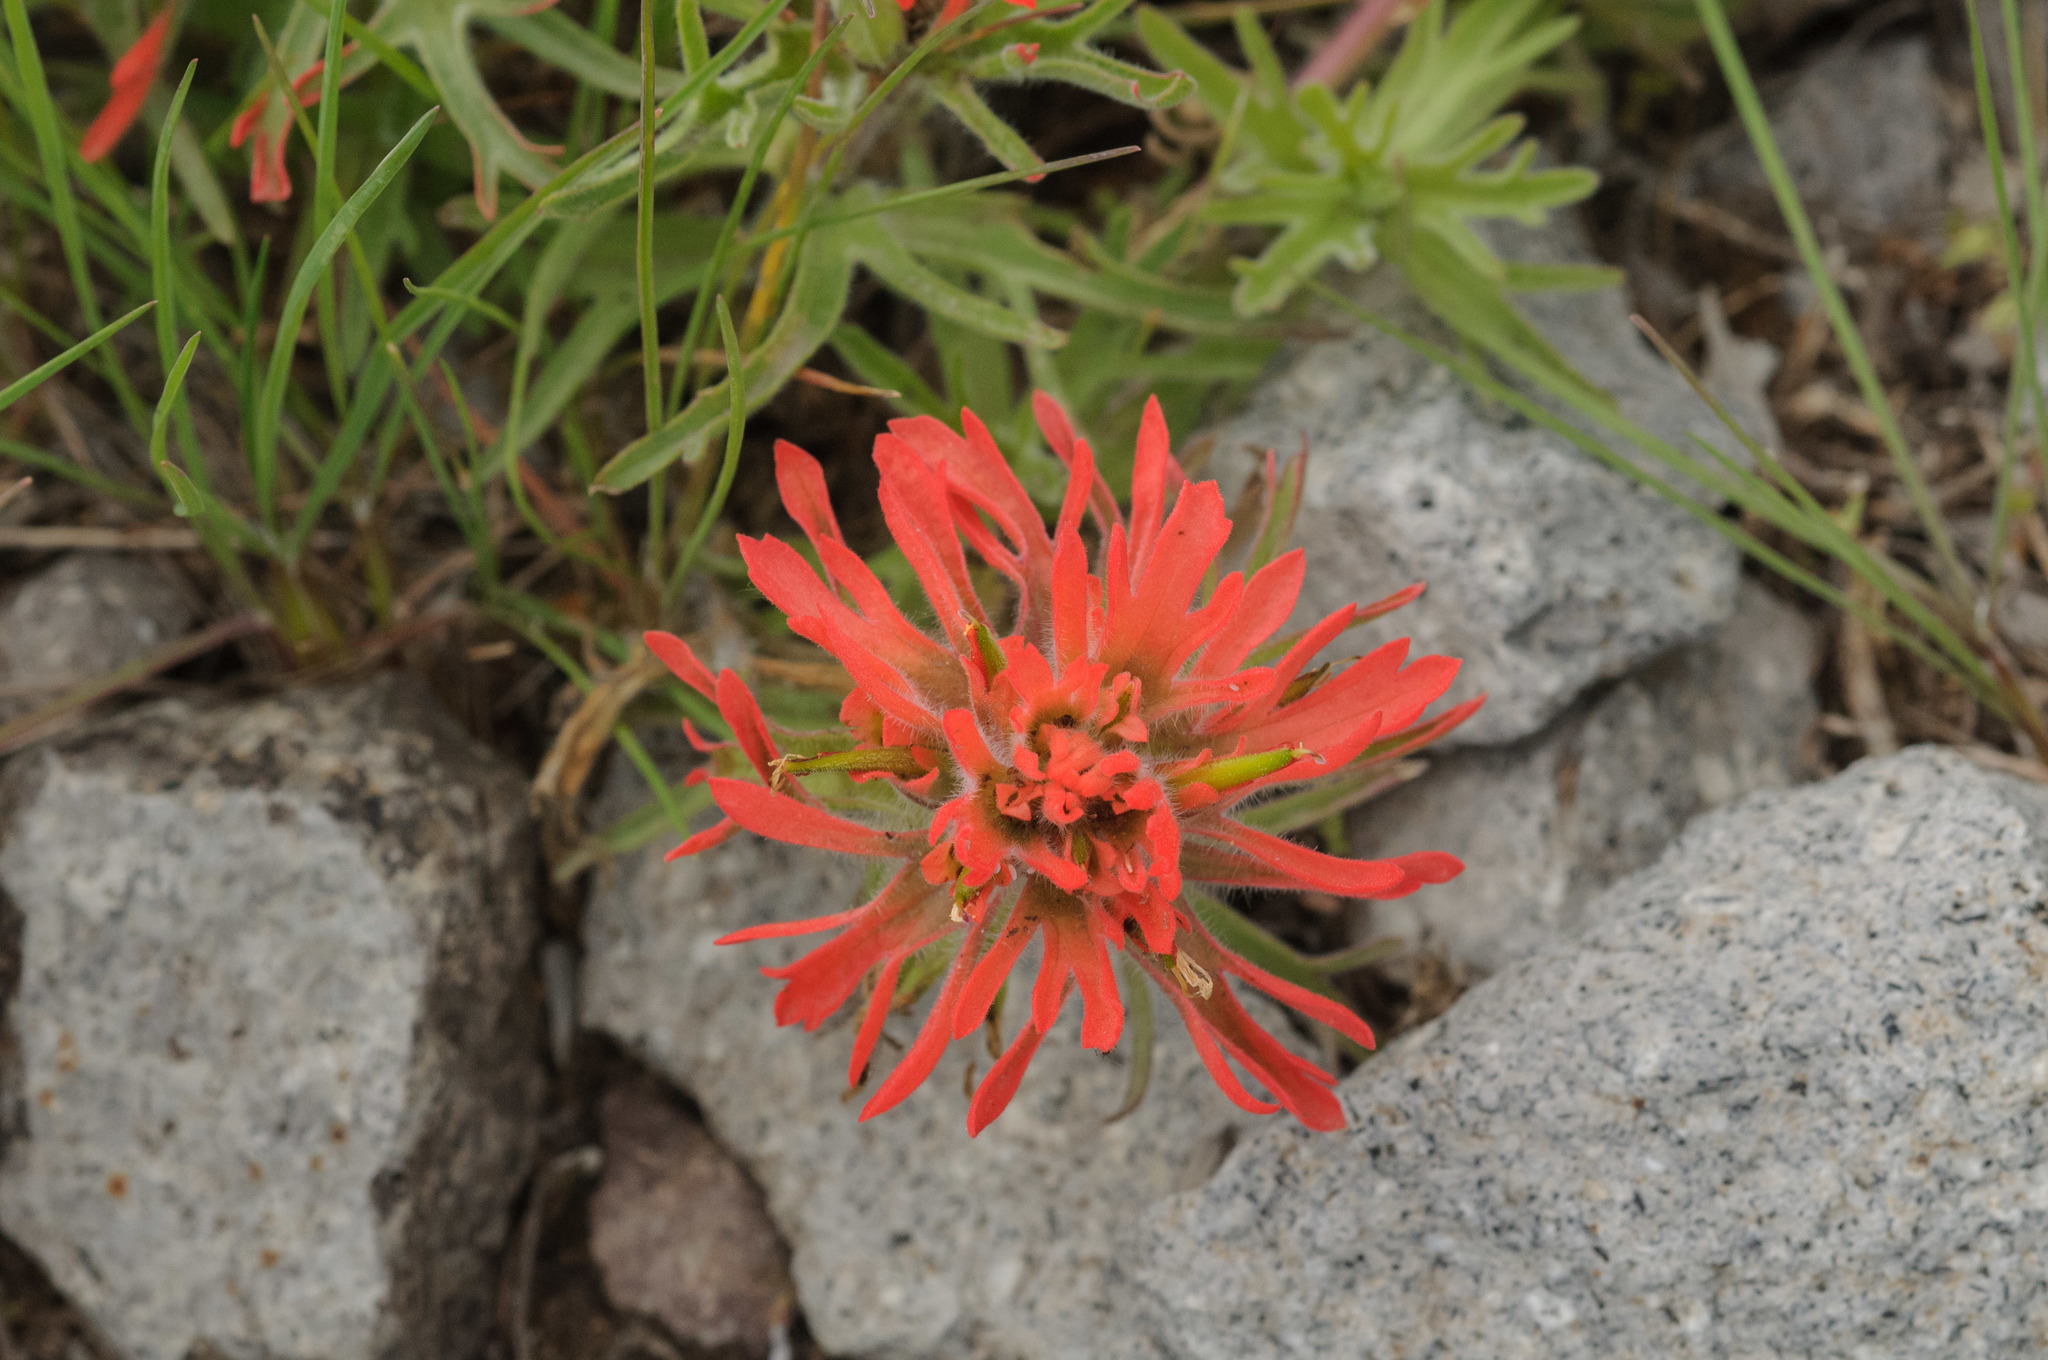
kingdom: Plantae
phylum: Tracheophyta
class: Magnoliopsida
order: Lamiales
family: Orobanchaceae
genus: Castilleja
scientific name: Castilleja chromosa
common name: Desert paintbrush
